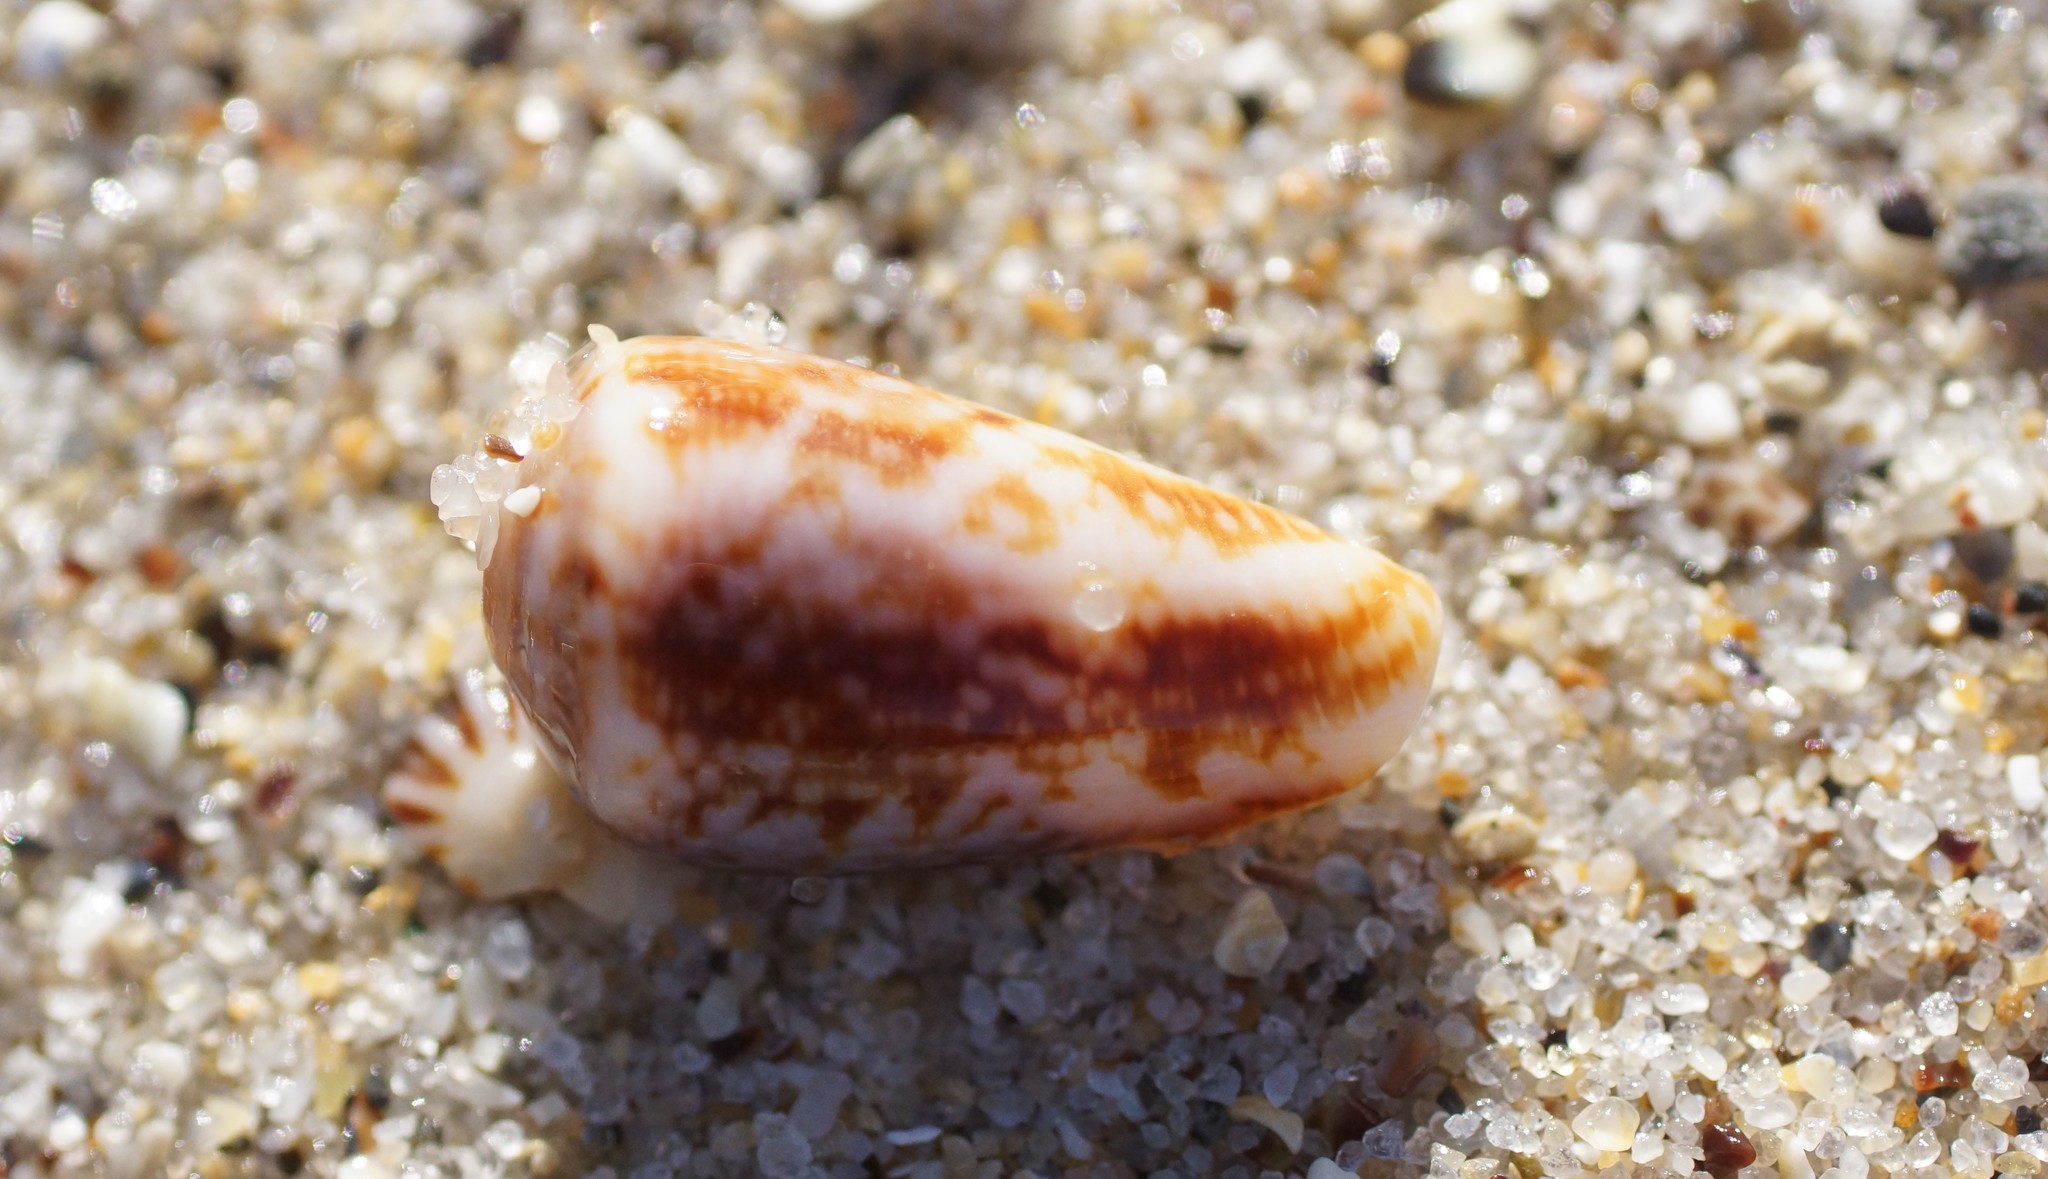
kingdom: Animalia
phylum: Mollusca
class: Gastropoda
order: Neogastropoda
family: Conidae
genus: Conus
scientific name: Conus anemone
